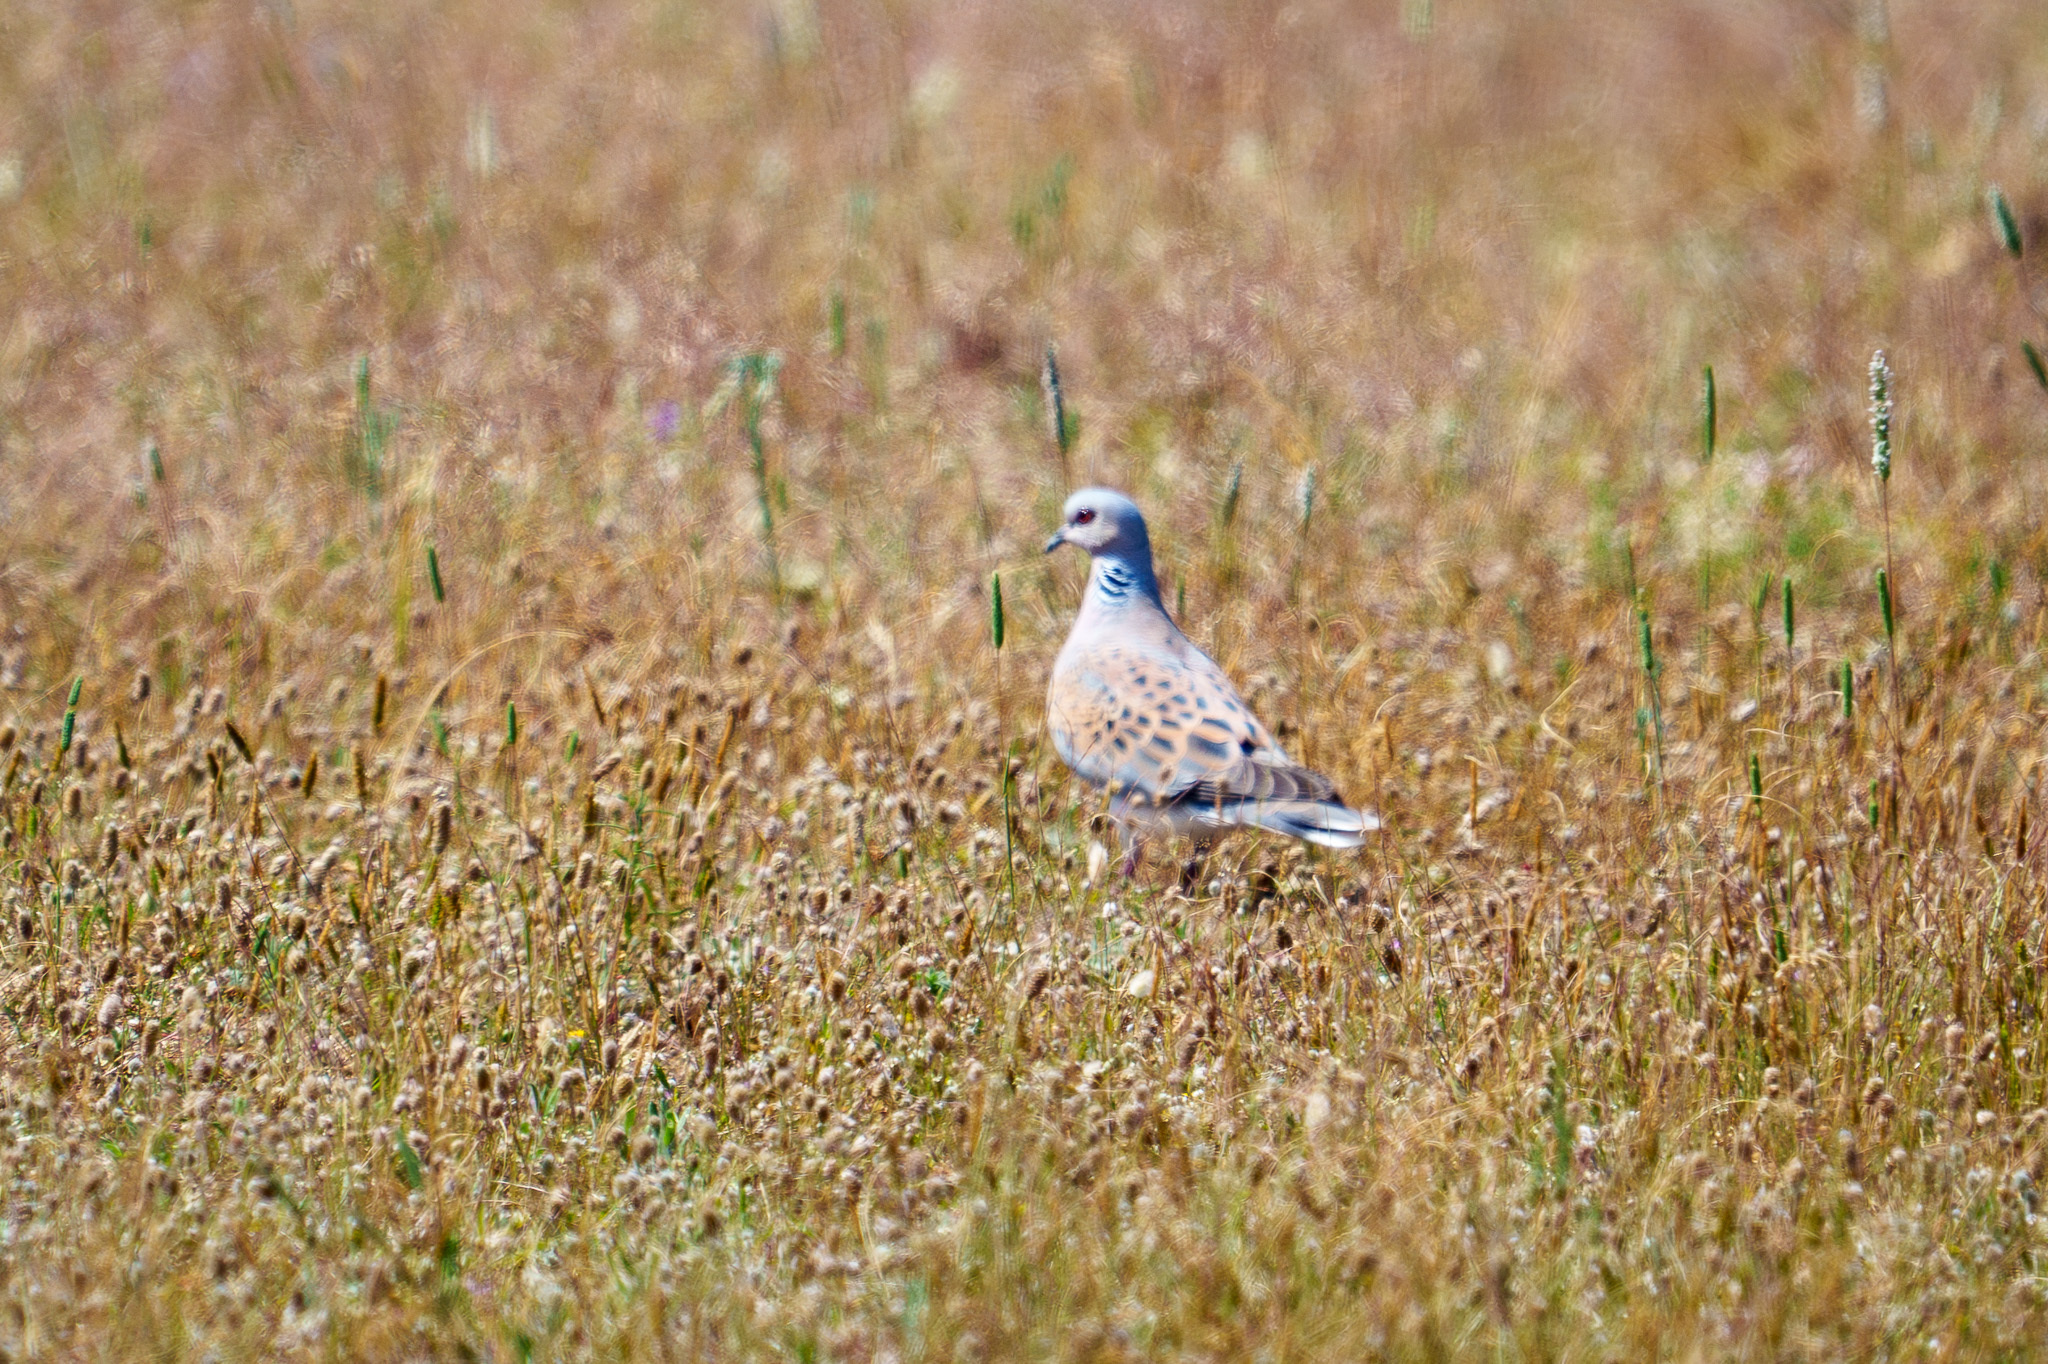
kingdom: Animalia
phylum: Chordata
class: Aves
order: Columbiformes
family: Columbidae
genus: Streptopelia
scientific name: Streptopelia turtur
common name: European turtle dove
